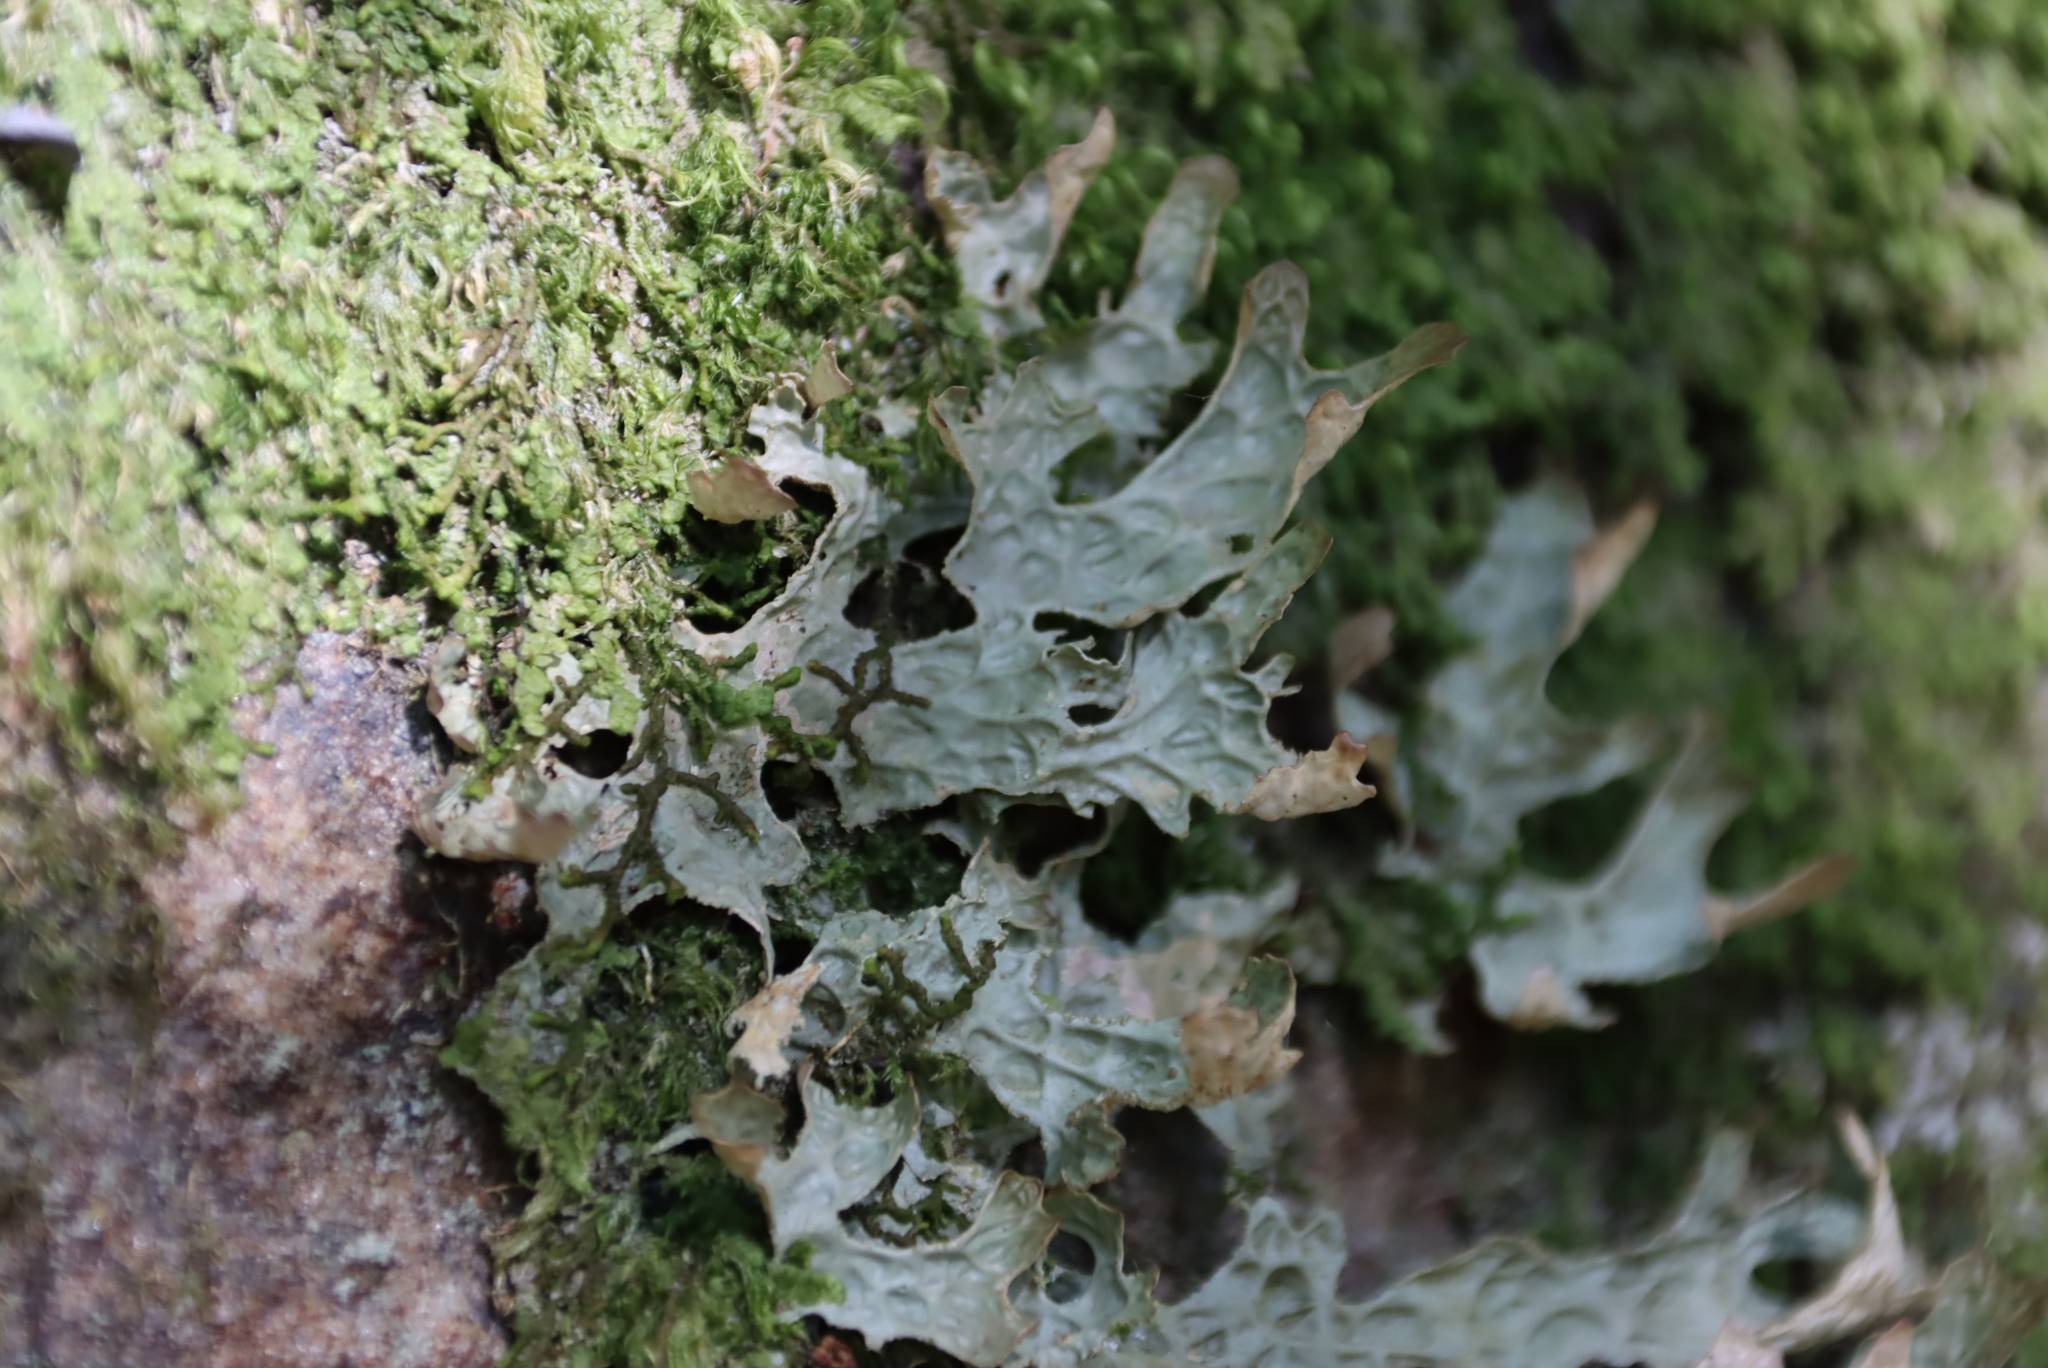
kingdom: Fungi
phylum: Ascomycota
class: Lecanoromycetes
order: Peltigerales
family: Lobariaceae
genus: Lobaria
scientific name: Lobaria pulmonaria
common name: Lungwort
